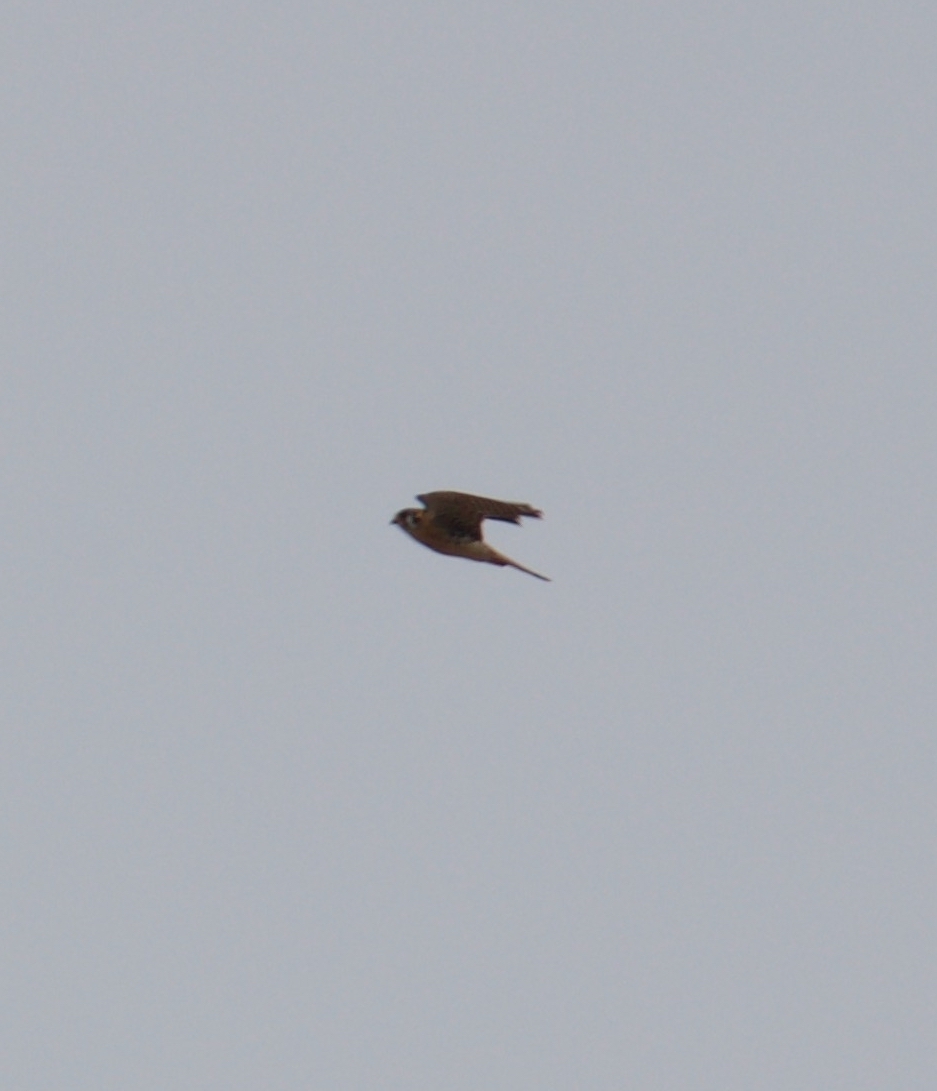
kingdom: Animalia
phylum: Chordata
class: Aves
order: Falconiformes
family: Falconidae
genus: Falco
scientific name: Falco sparverius
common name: American kestrel
